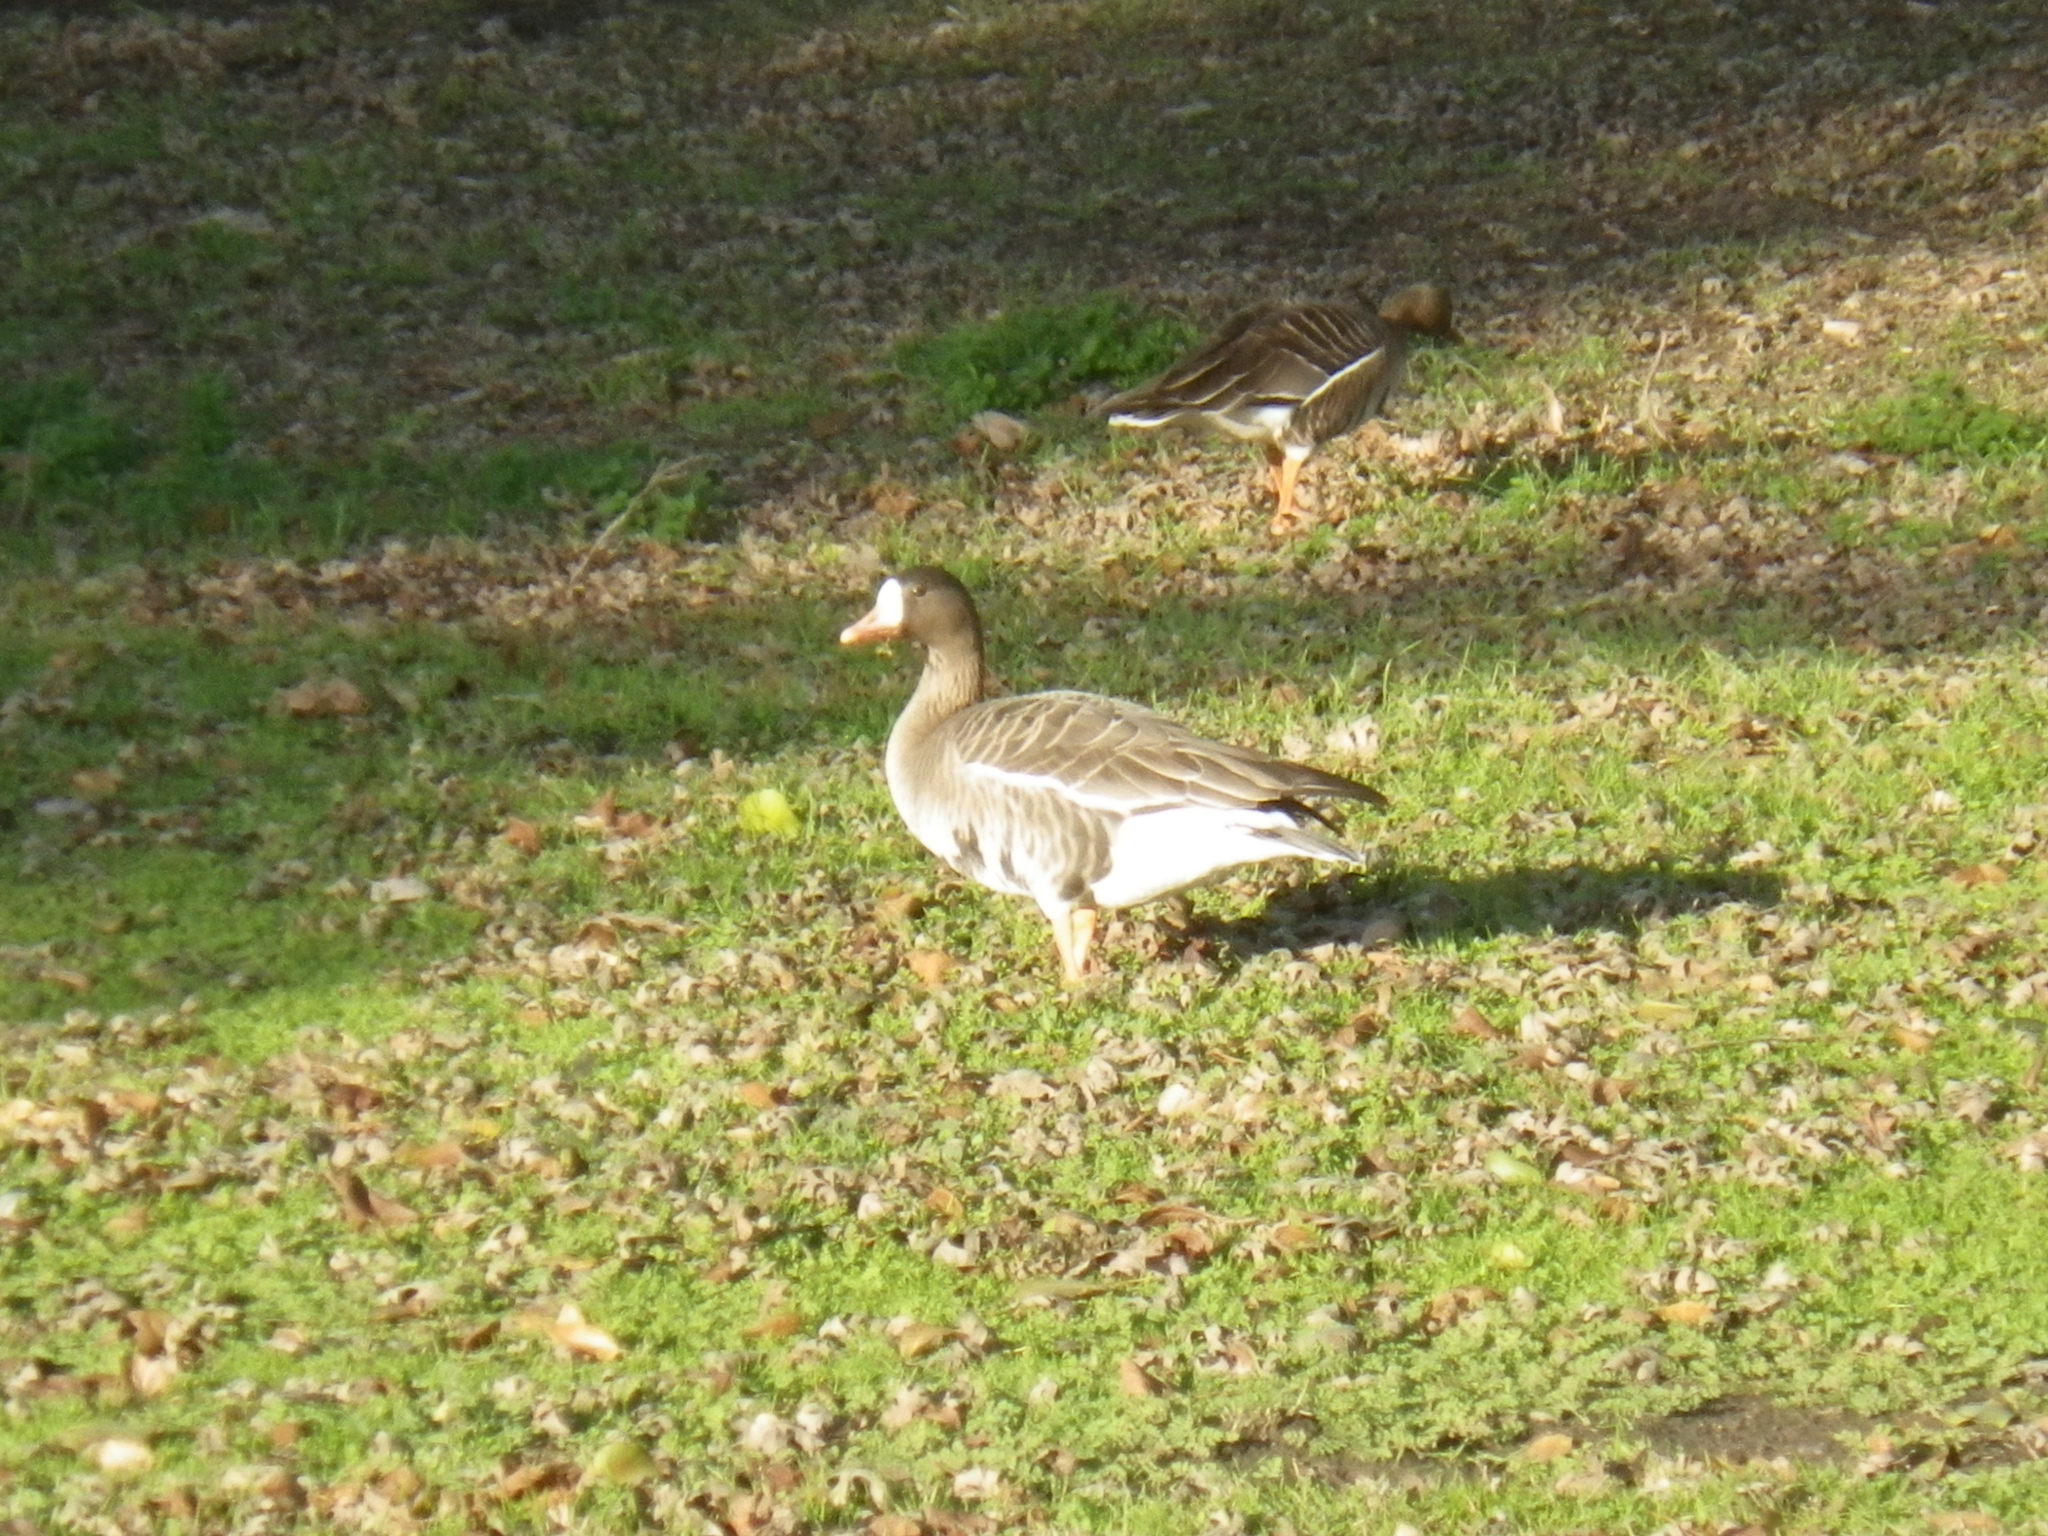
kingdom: Animalia
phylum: Chordata
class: Aves
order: Anseriformes
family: Anatidae
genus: Anser
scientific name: Anser albifrons
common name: Greater white-fronted goose
